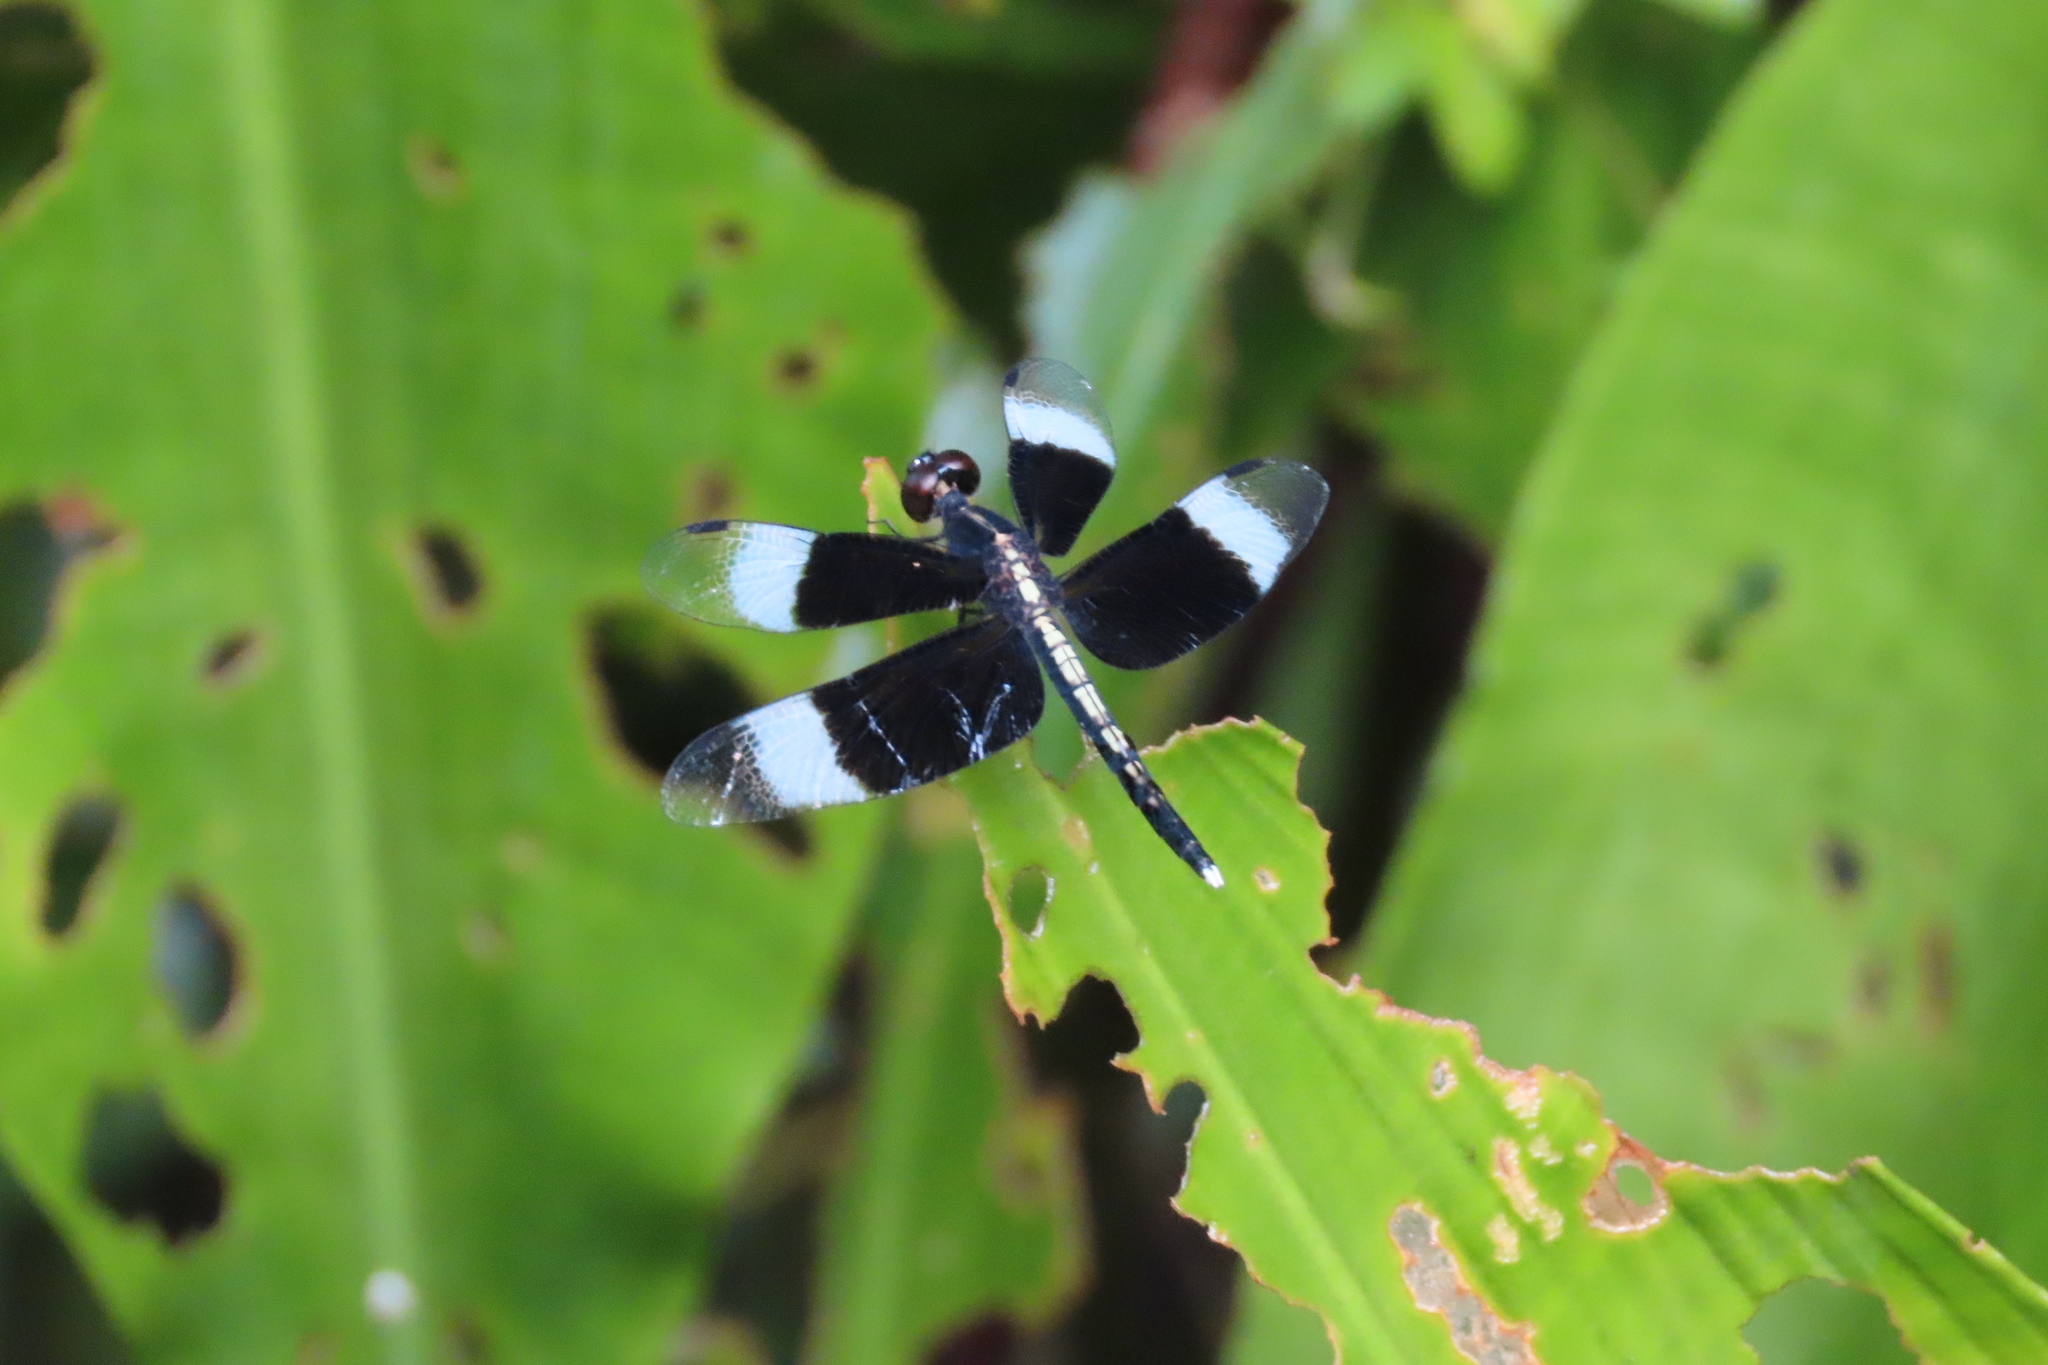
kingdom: Animalia
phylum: Arthropoda
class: Insecta
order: Odonata
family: Libellulidae
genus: Neurothemis
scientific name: Neurothemis tullia
